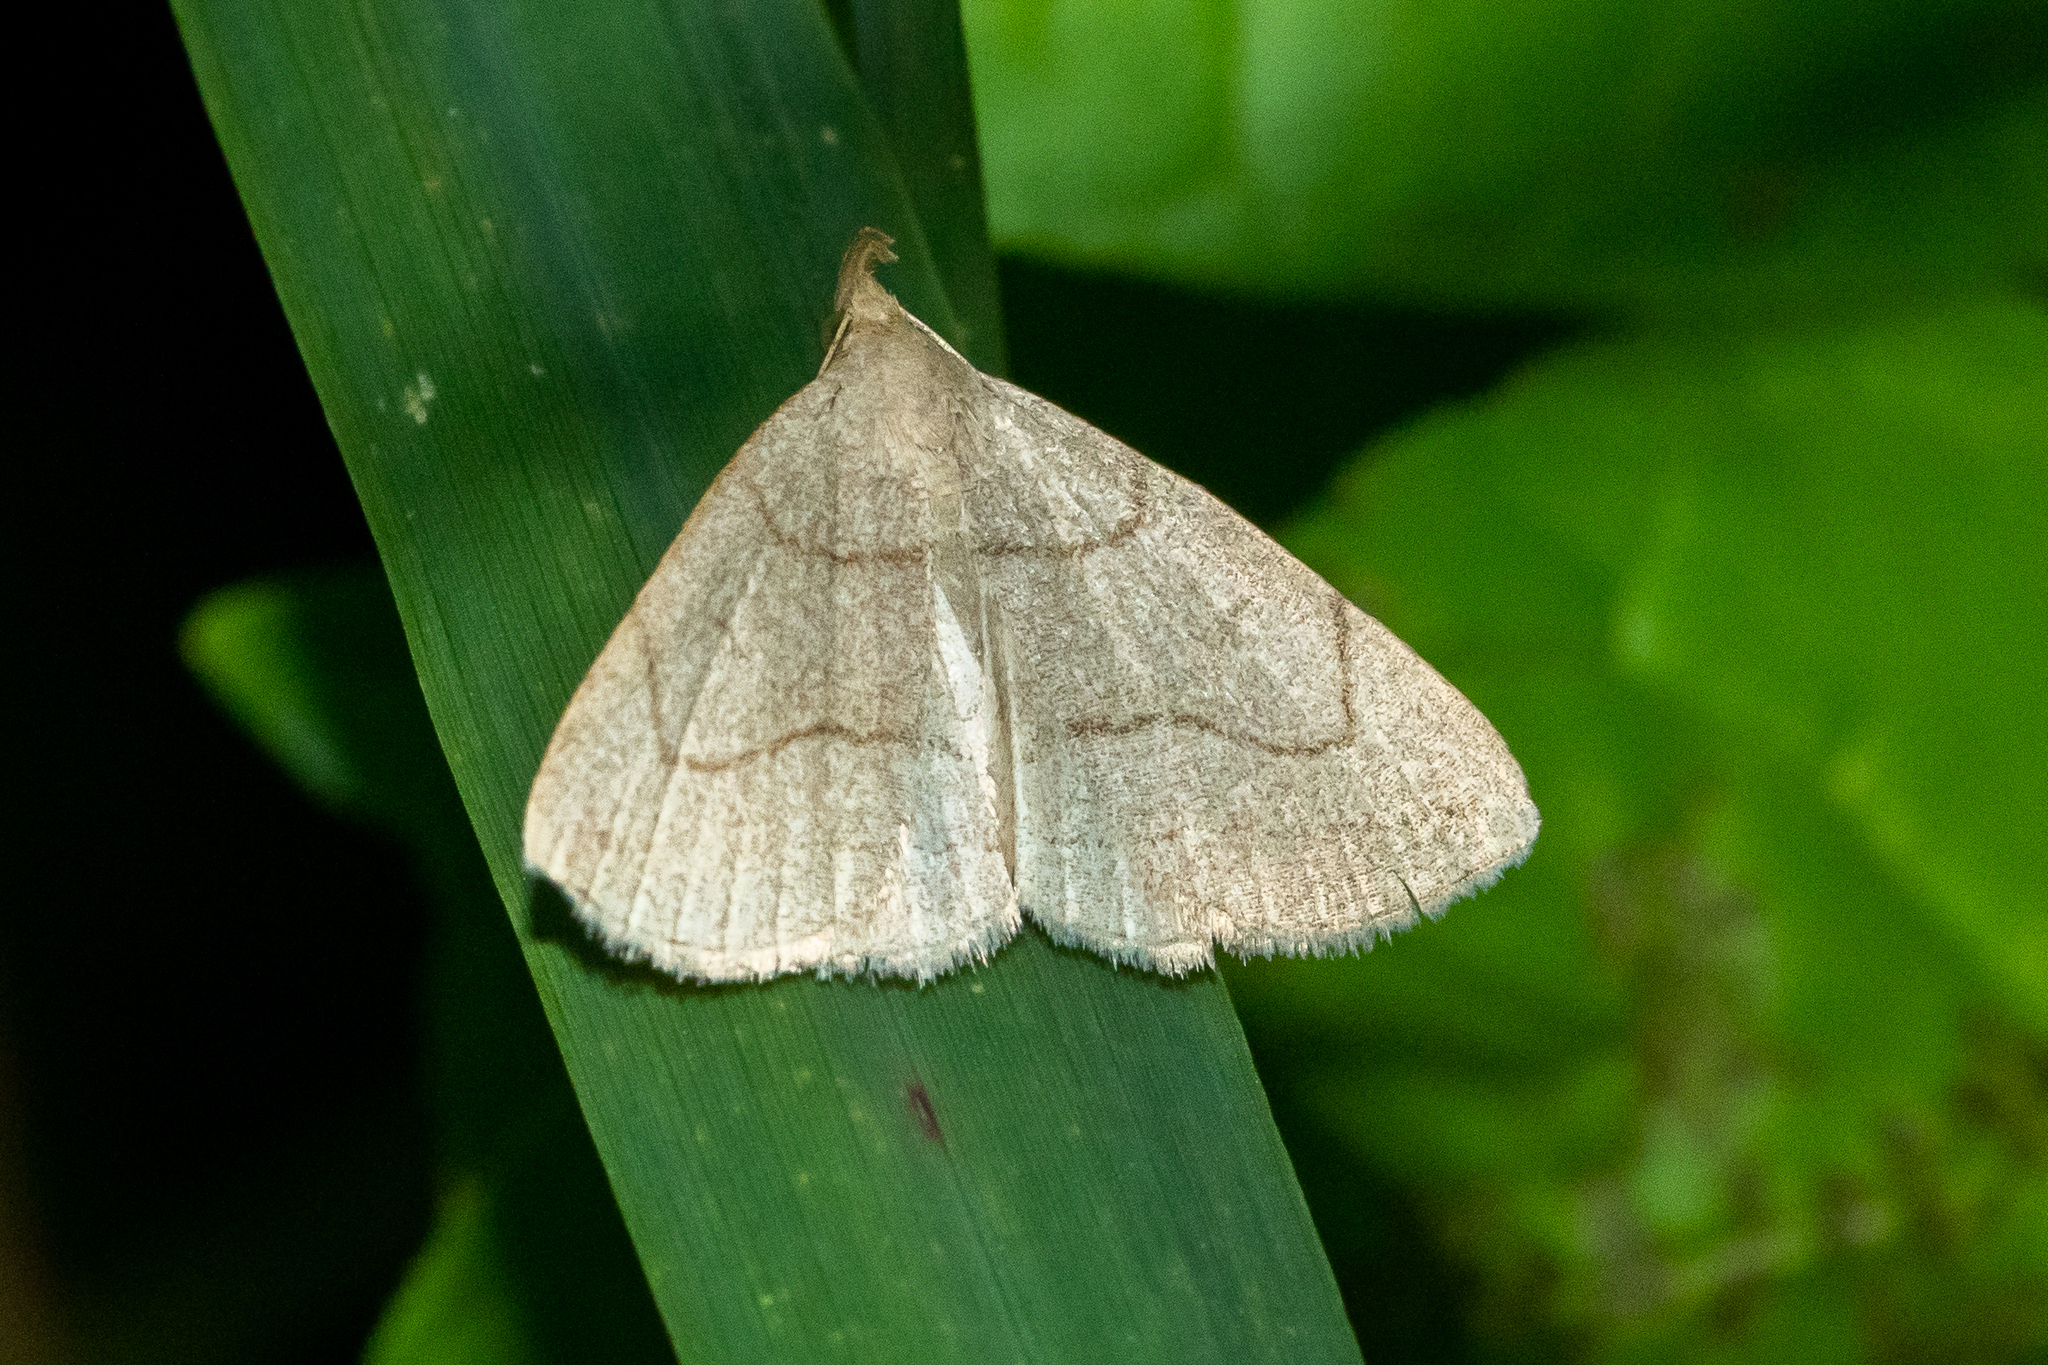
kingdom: Animalia
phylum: Arthropoda
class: Insecta
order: Lepidoptera
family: Erebidae
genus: Zanclognatha
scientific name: Zanclognatha pedipilalis
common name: Grayish fan-foot
